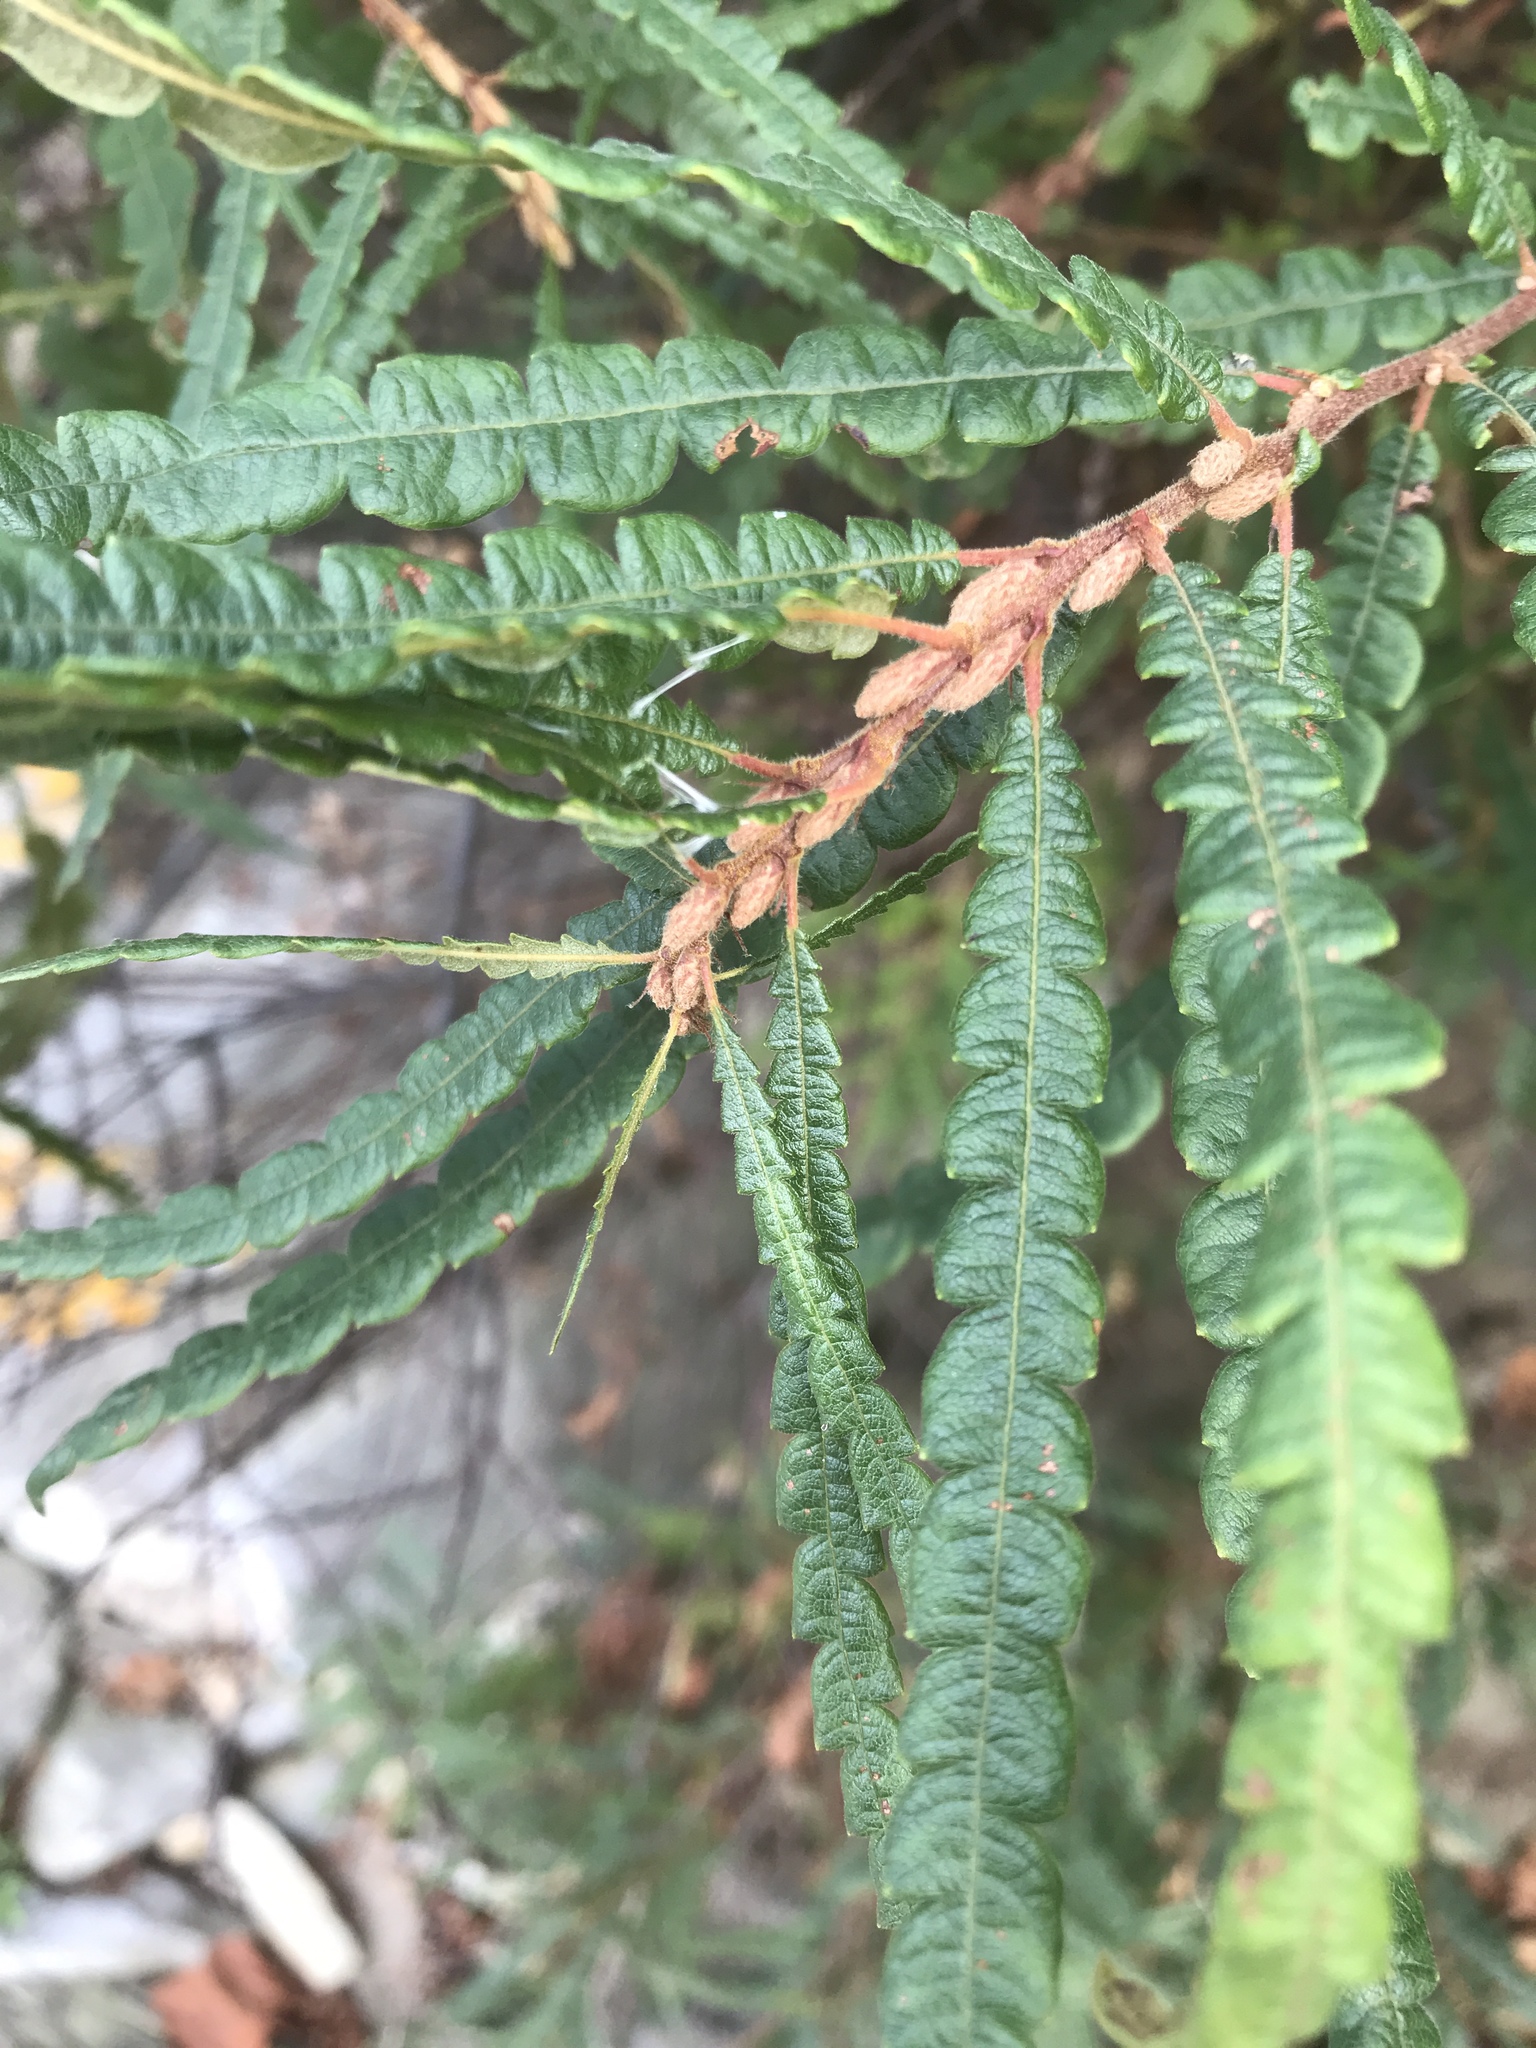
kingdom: Plantae
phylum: Tracheophyta
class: Magnoliopsida
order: Fagales
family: Myricaceae
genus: Comptonia
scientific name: Comptonia peregrina
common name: Sweet-fern
